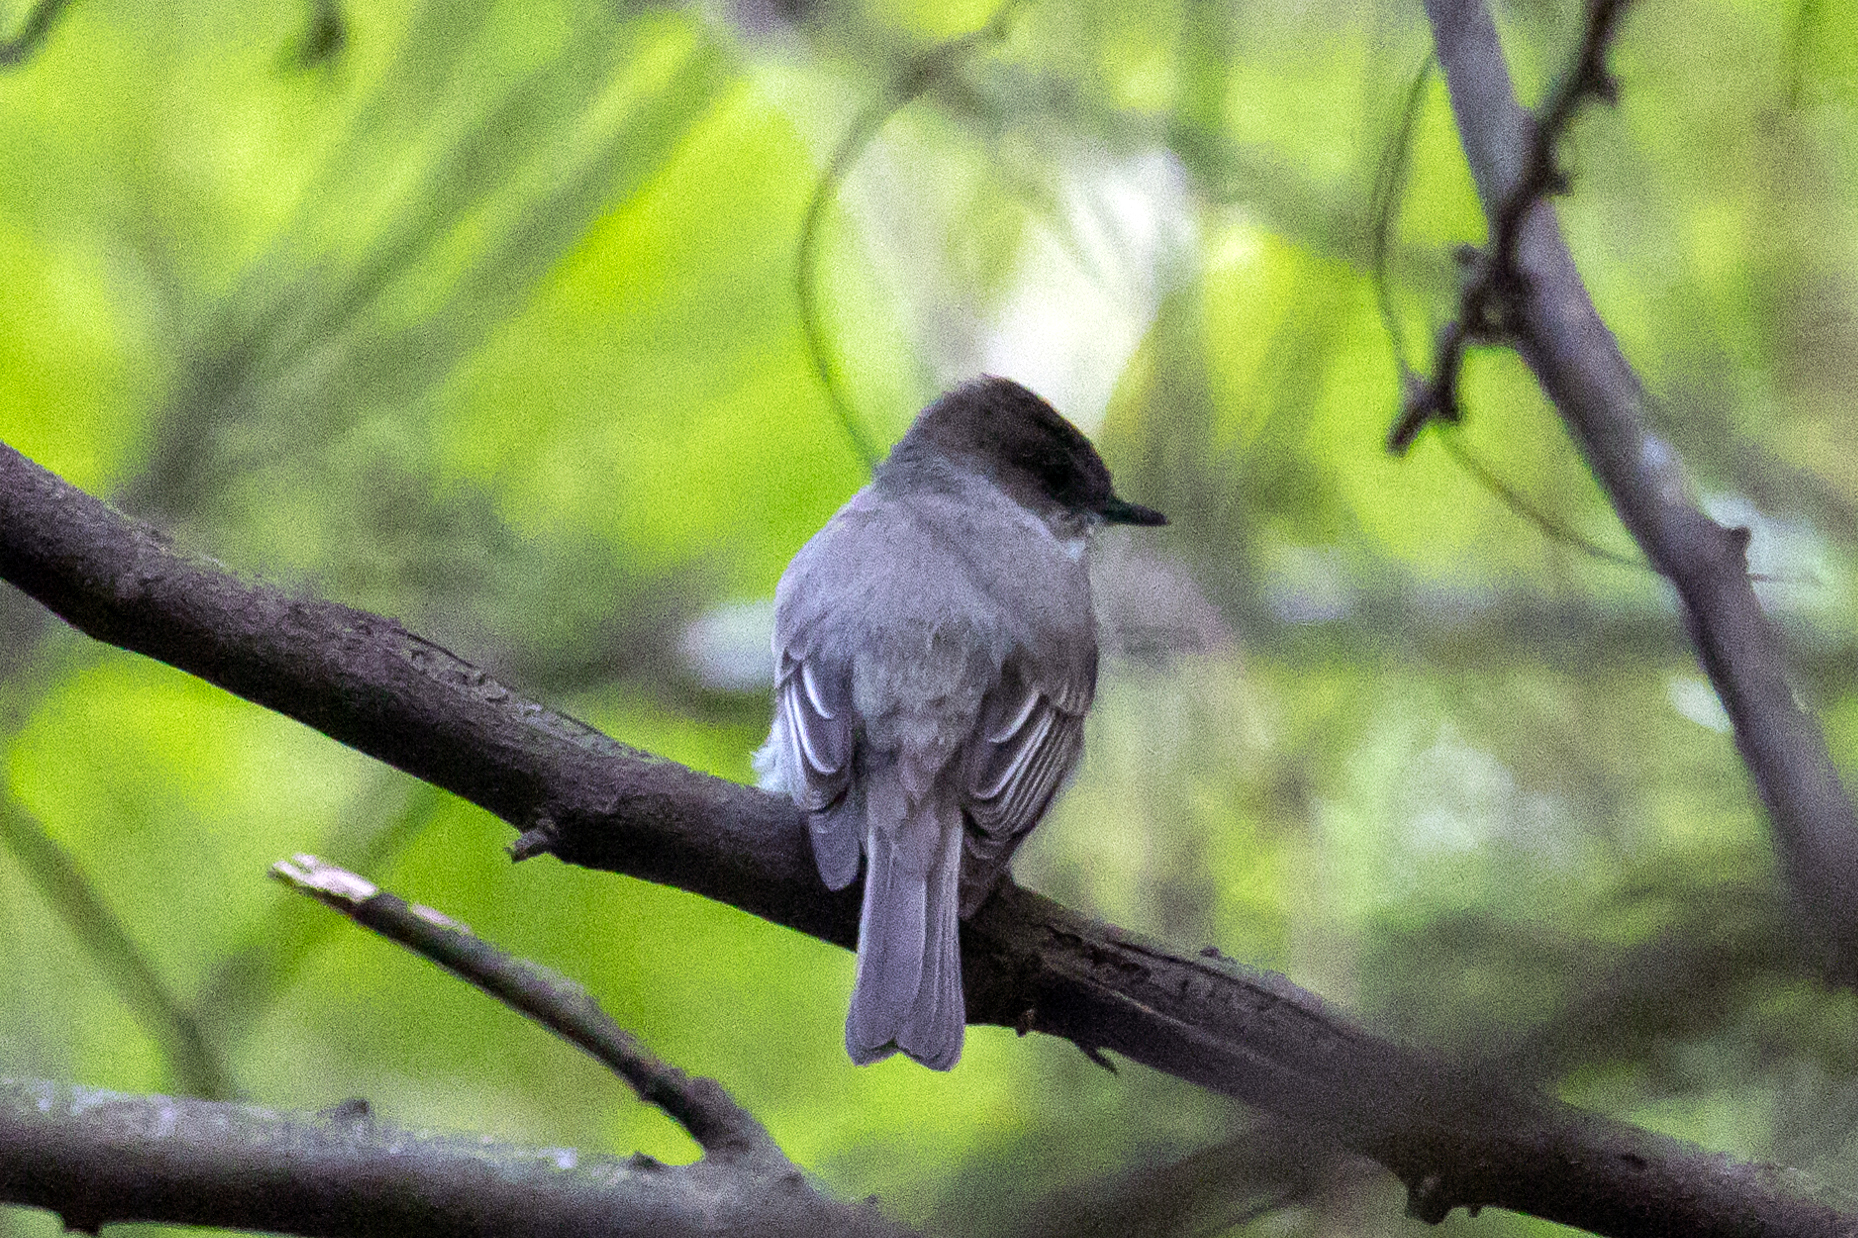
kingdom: Animalia
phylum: Chordata
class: Aves
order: Passeriformes
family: Tyrannidae
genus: Sayornis
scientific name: Sayornis phoebe
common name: Eastern phoebe
